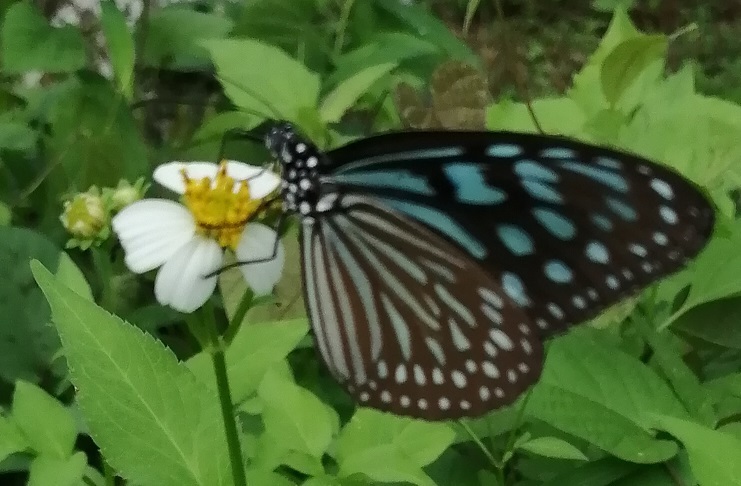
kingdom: Animalia
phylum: Arthropoda
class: Insecta
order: Lepidoptera
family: Nymphalidae
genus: Ideopsis
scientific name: Ideopsis similis
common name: Ceylon blue glassy tiger
